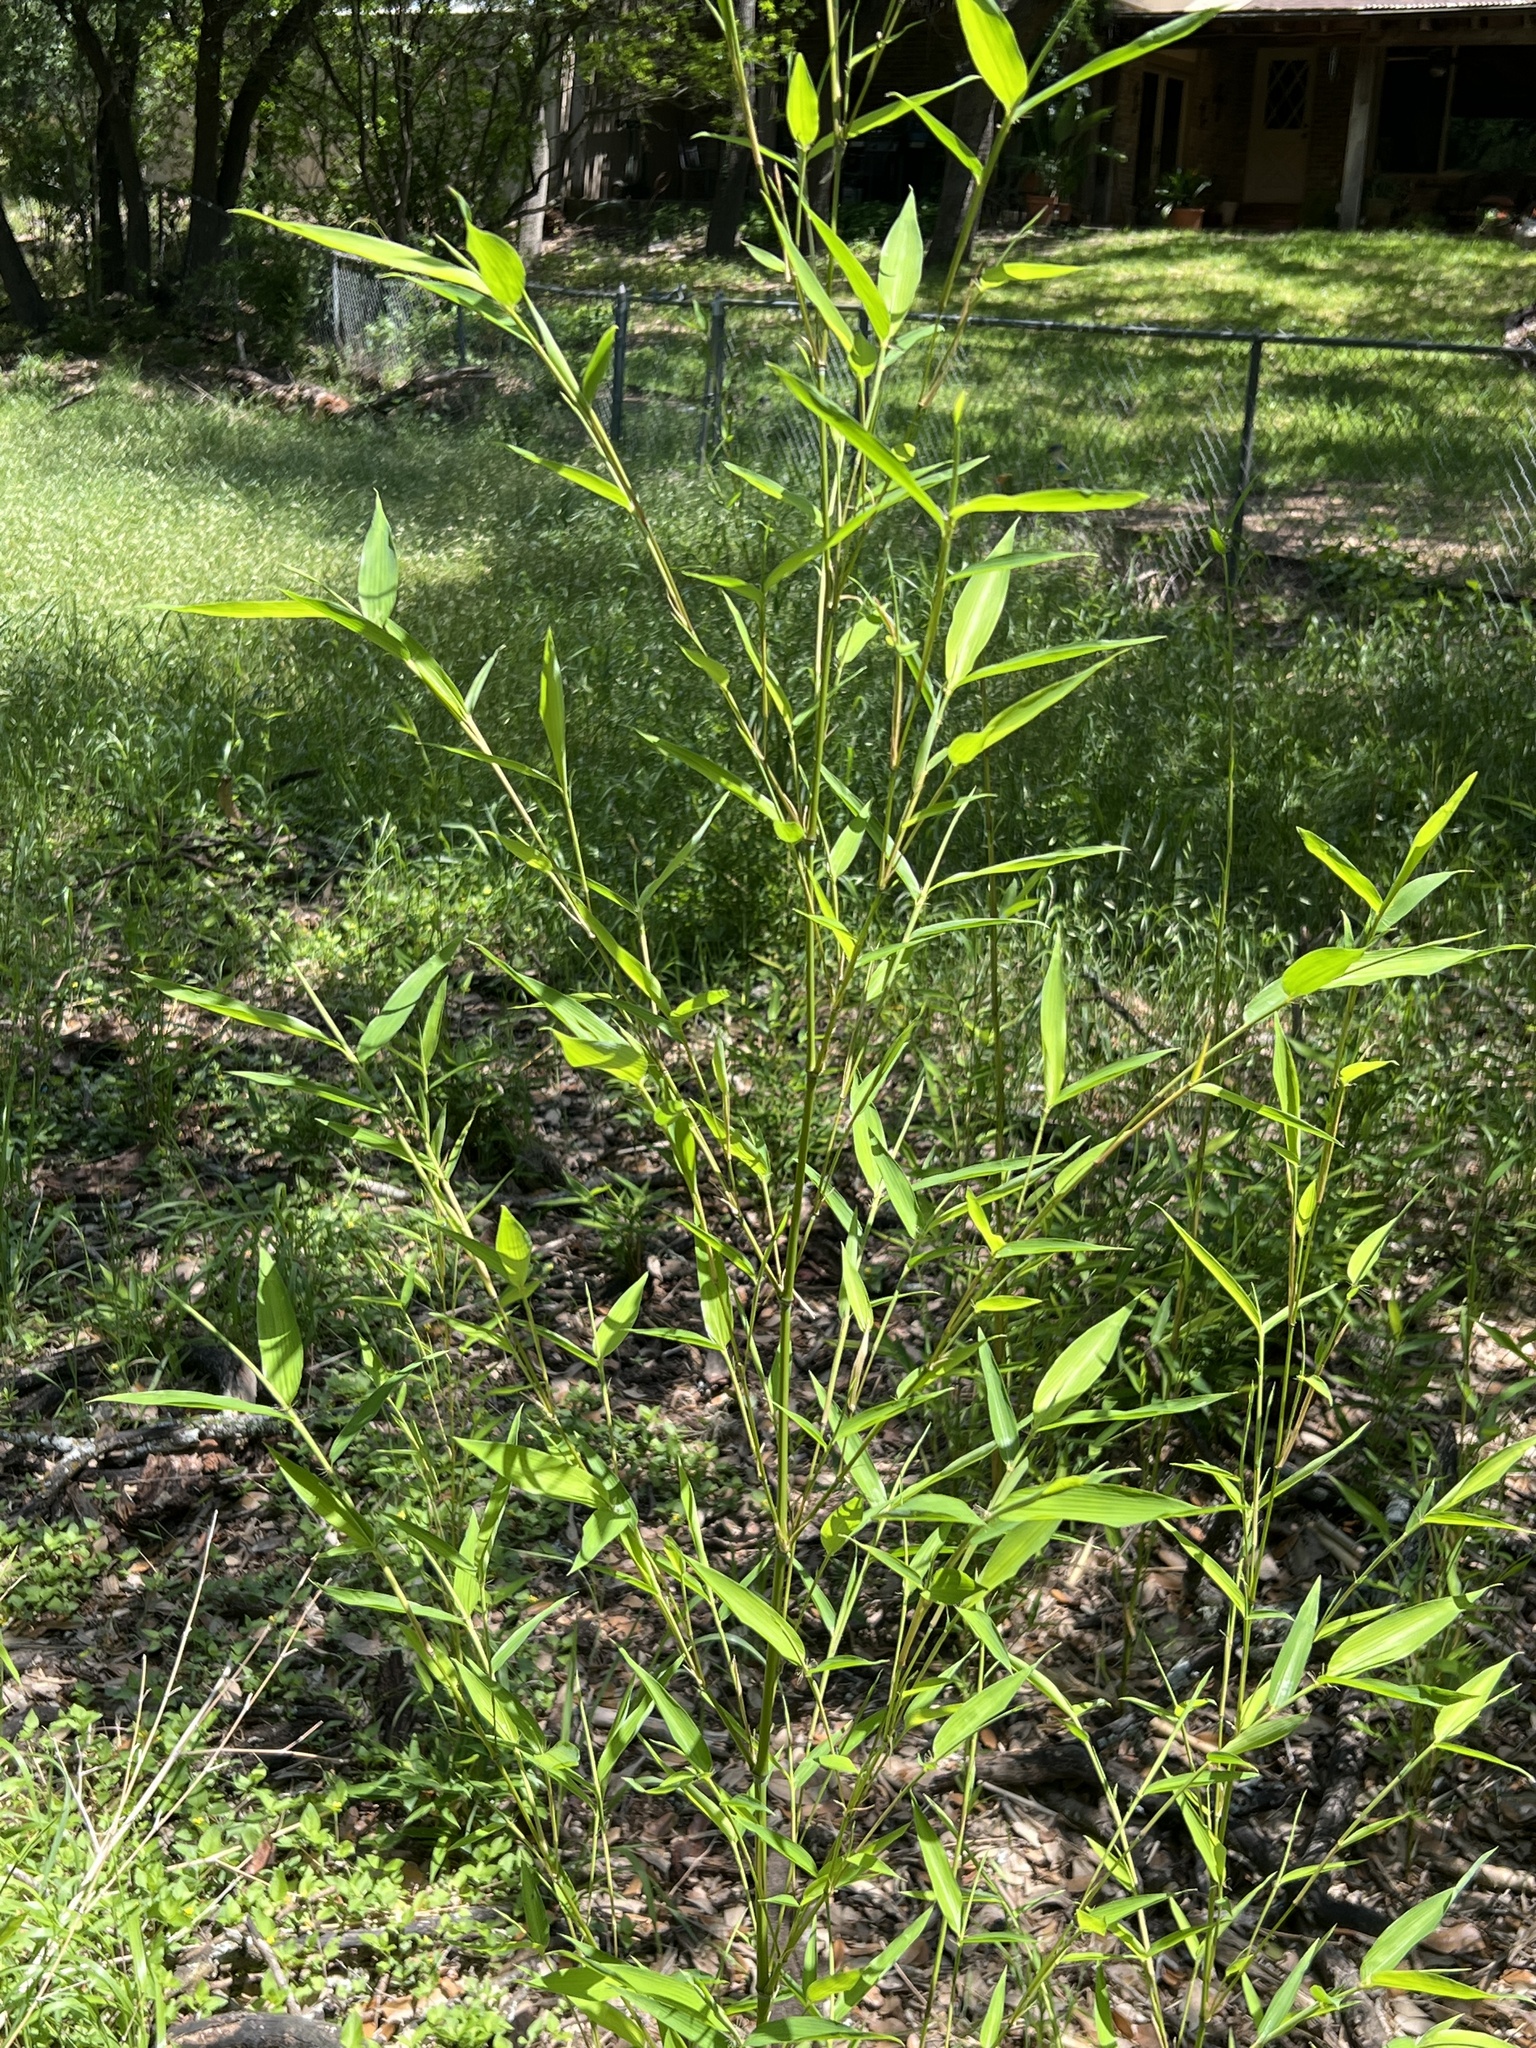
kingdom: Plantae
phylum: Tracheophyta
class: Liliopsida
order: Poales
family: Poaceae
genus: Phyllostachys
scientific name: Phyllostachys aurea
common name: Golden bamboo
